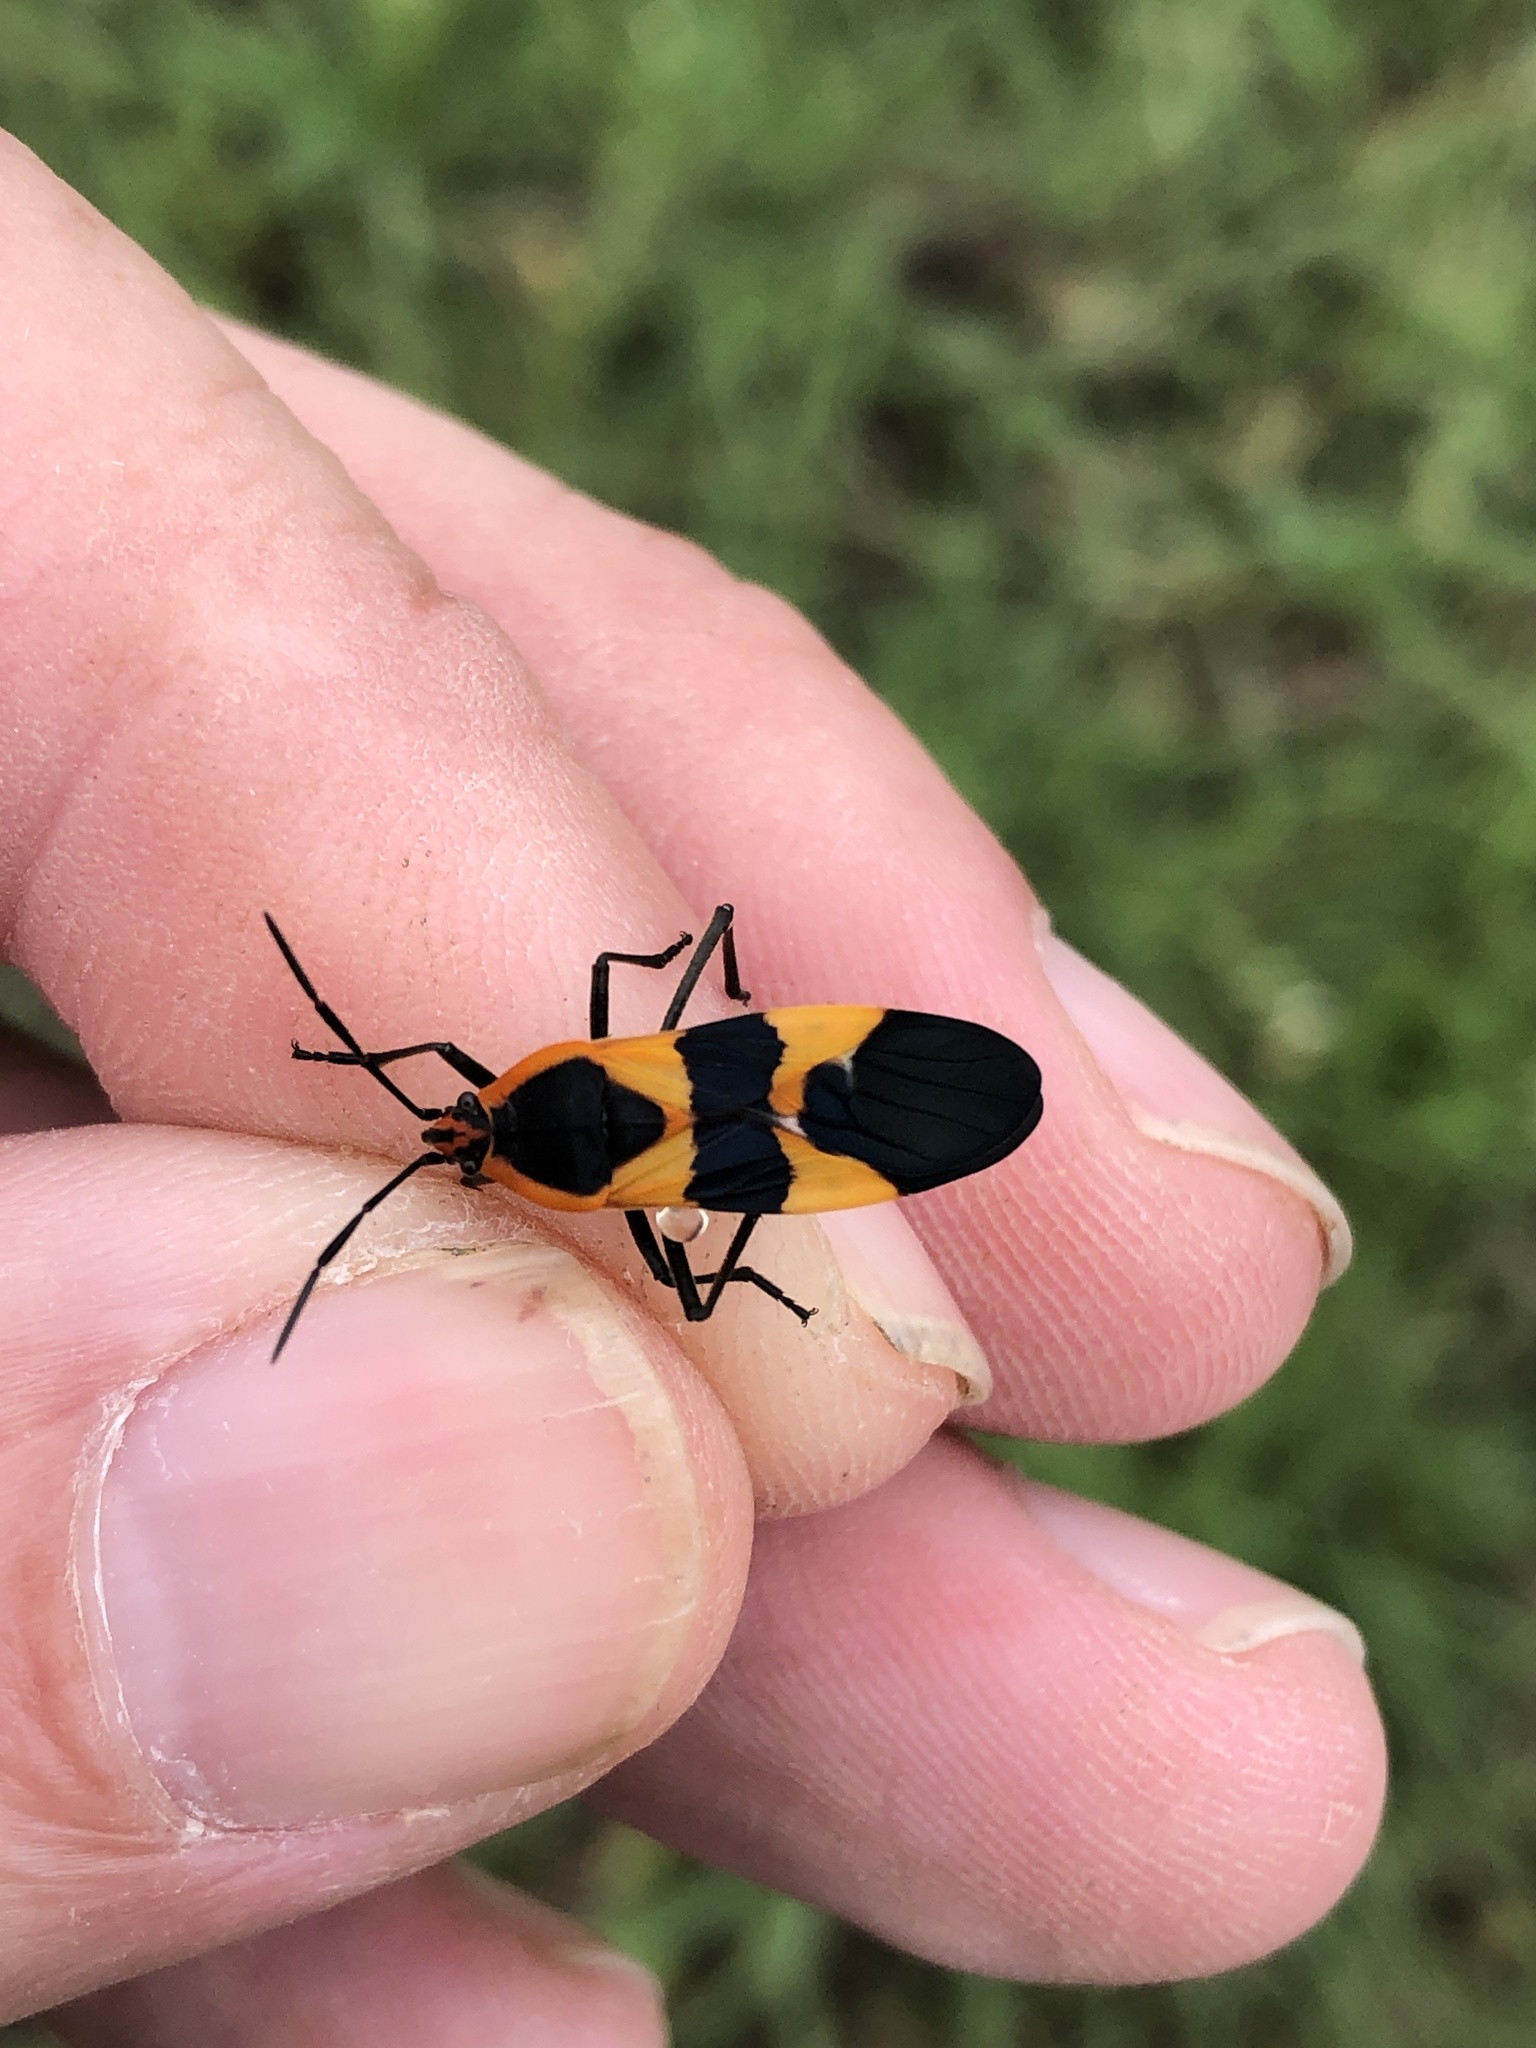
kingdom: Animalia
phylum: Arthropoda
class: Insecta
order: Hemiptera
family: Lygaeidae
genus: Oncopeltus
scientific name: Oncopeltus fasciatus
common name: Large milkweed bug
